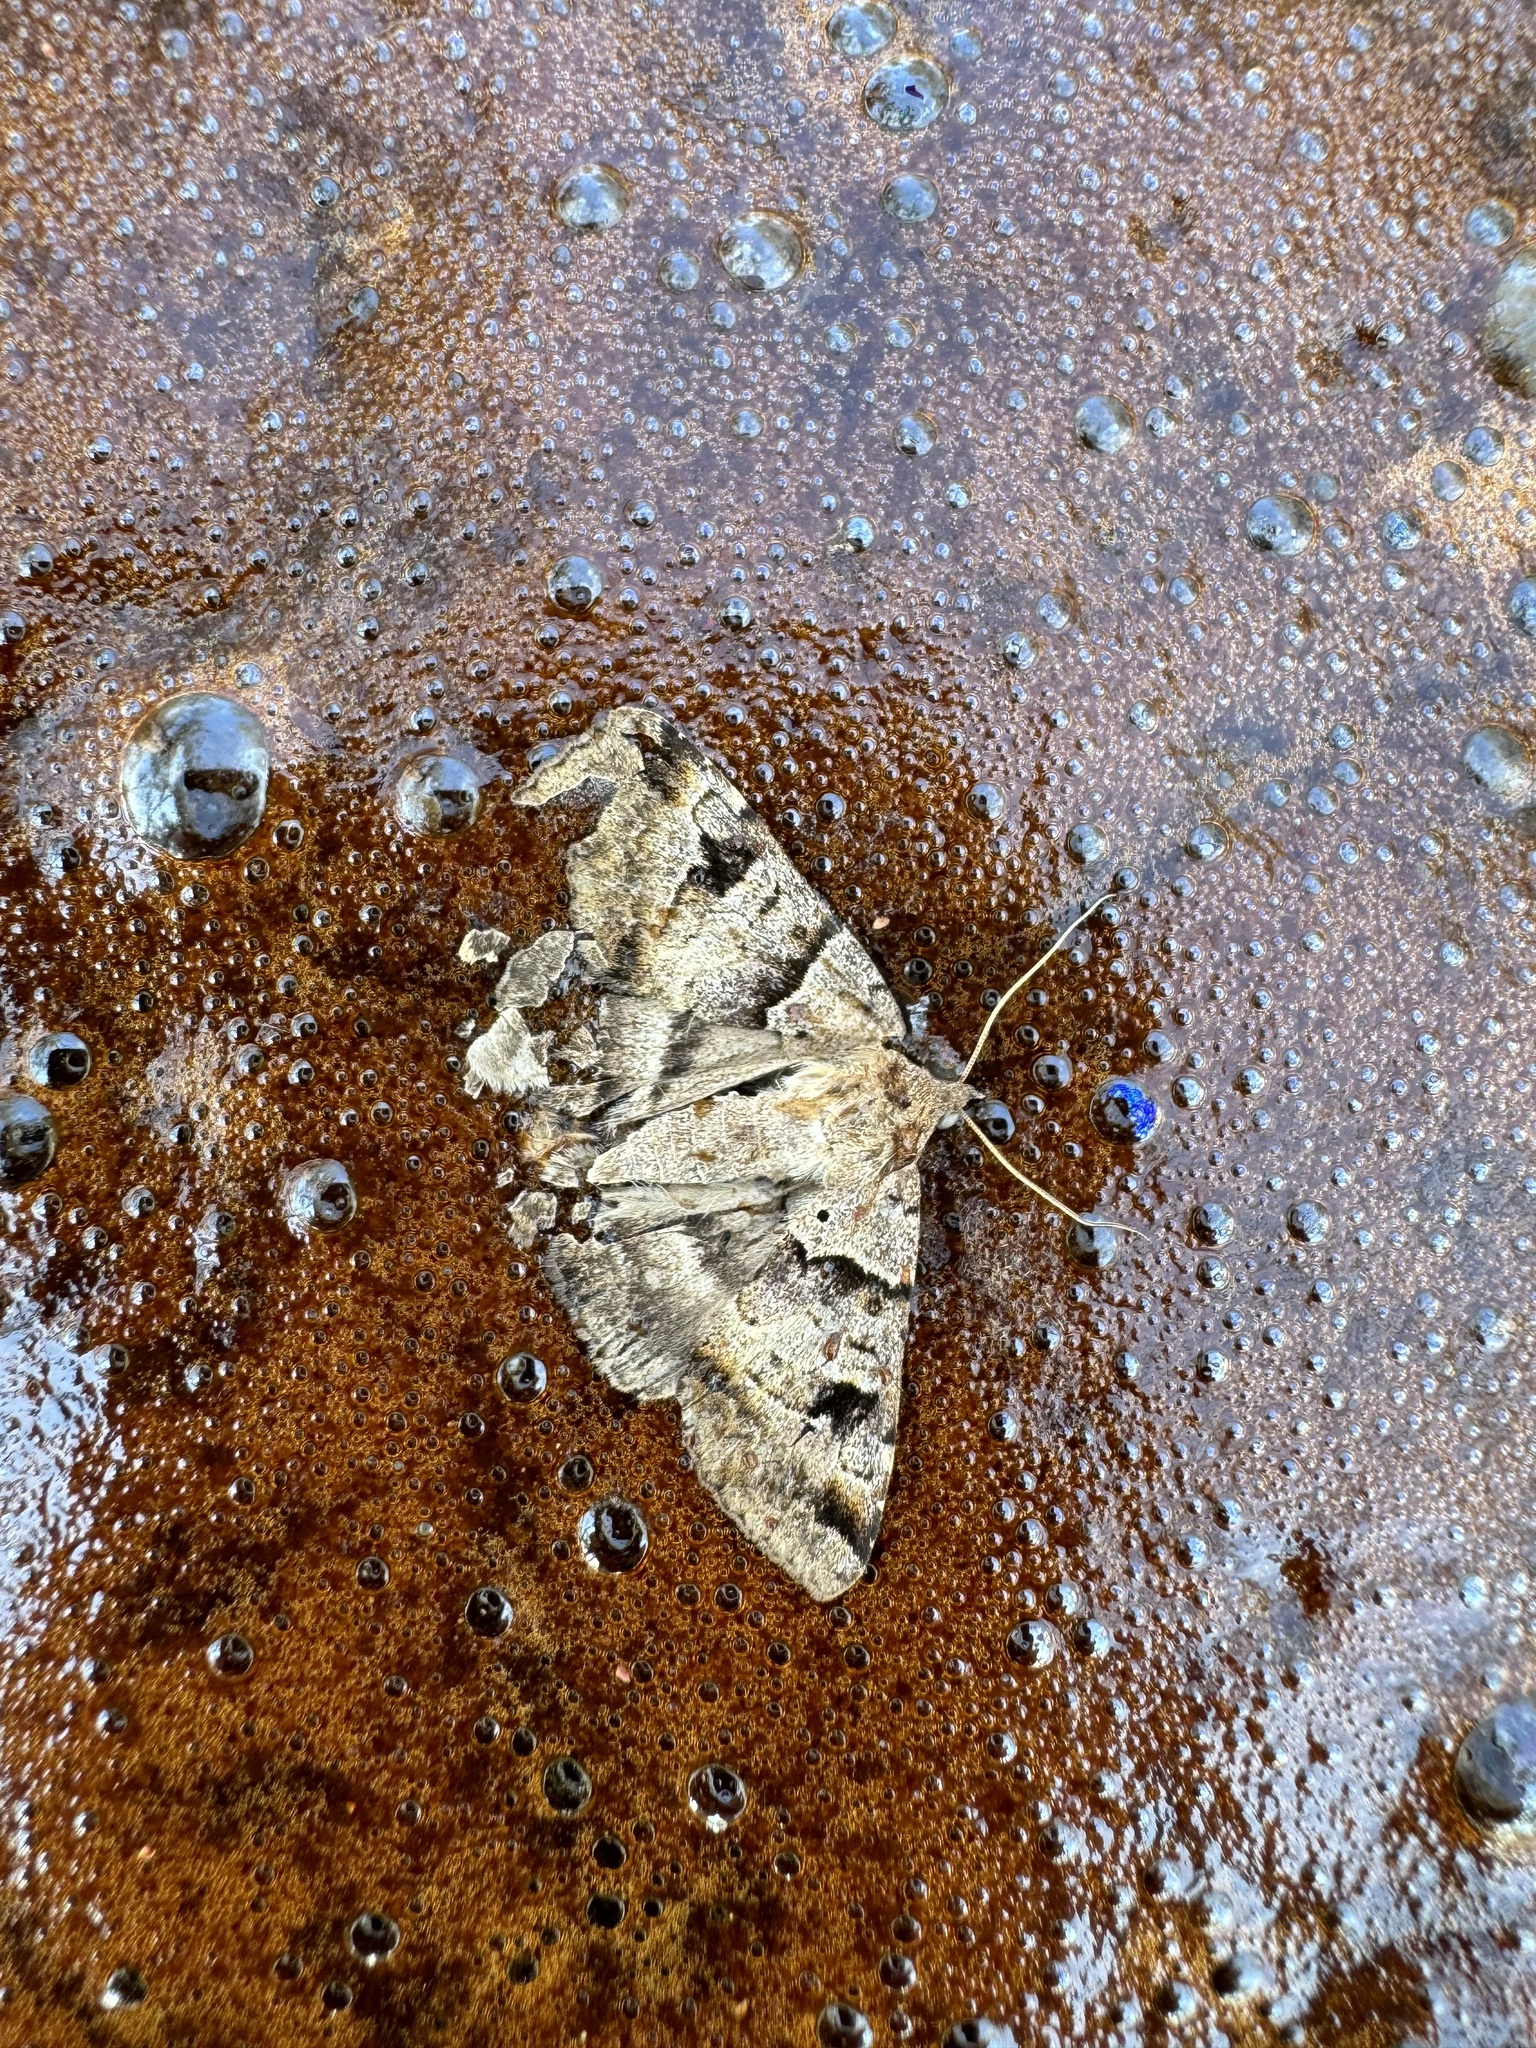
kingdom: Animalia
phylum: Arthropoda
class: Insecta
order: Lepidoptera
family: Erebidae
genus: Mocis
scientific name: Mocis alterna
